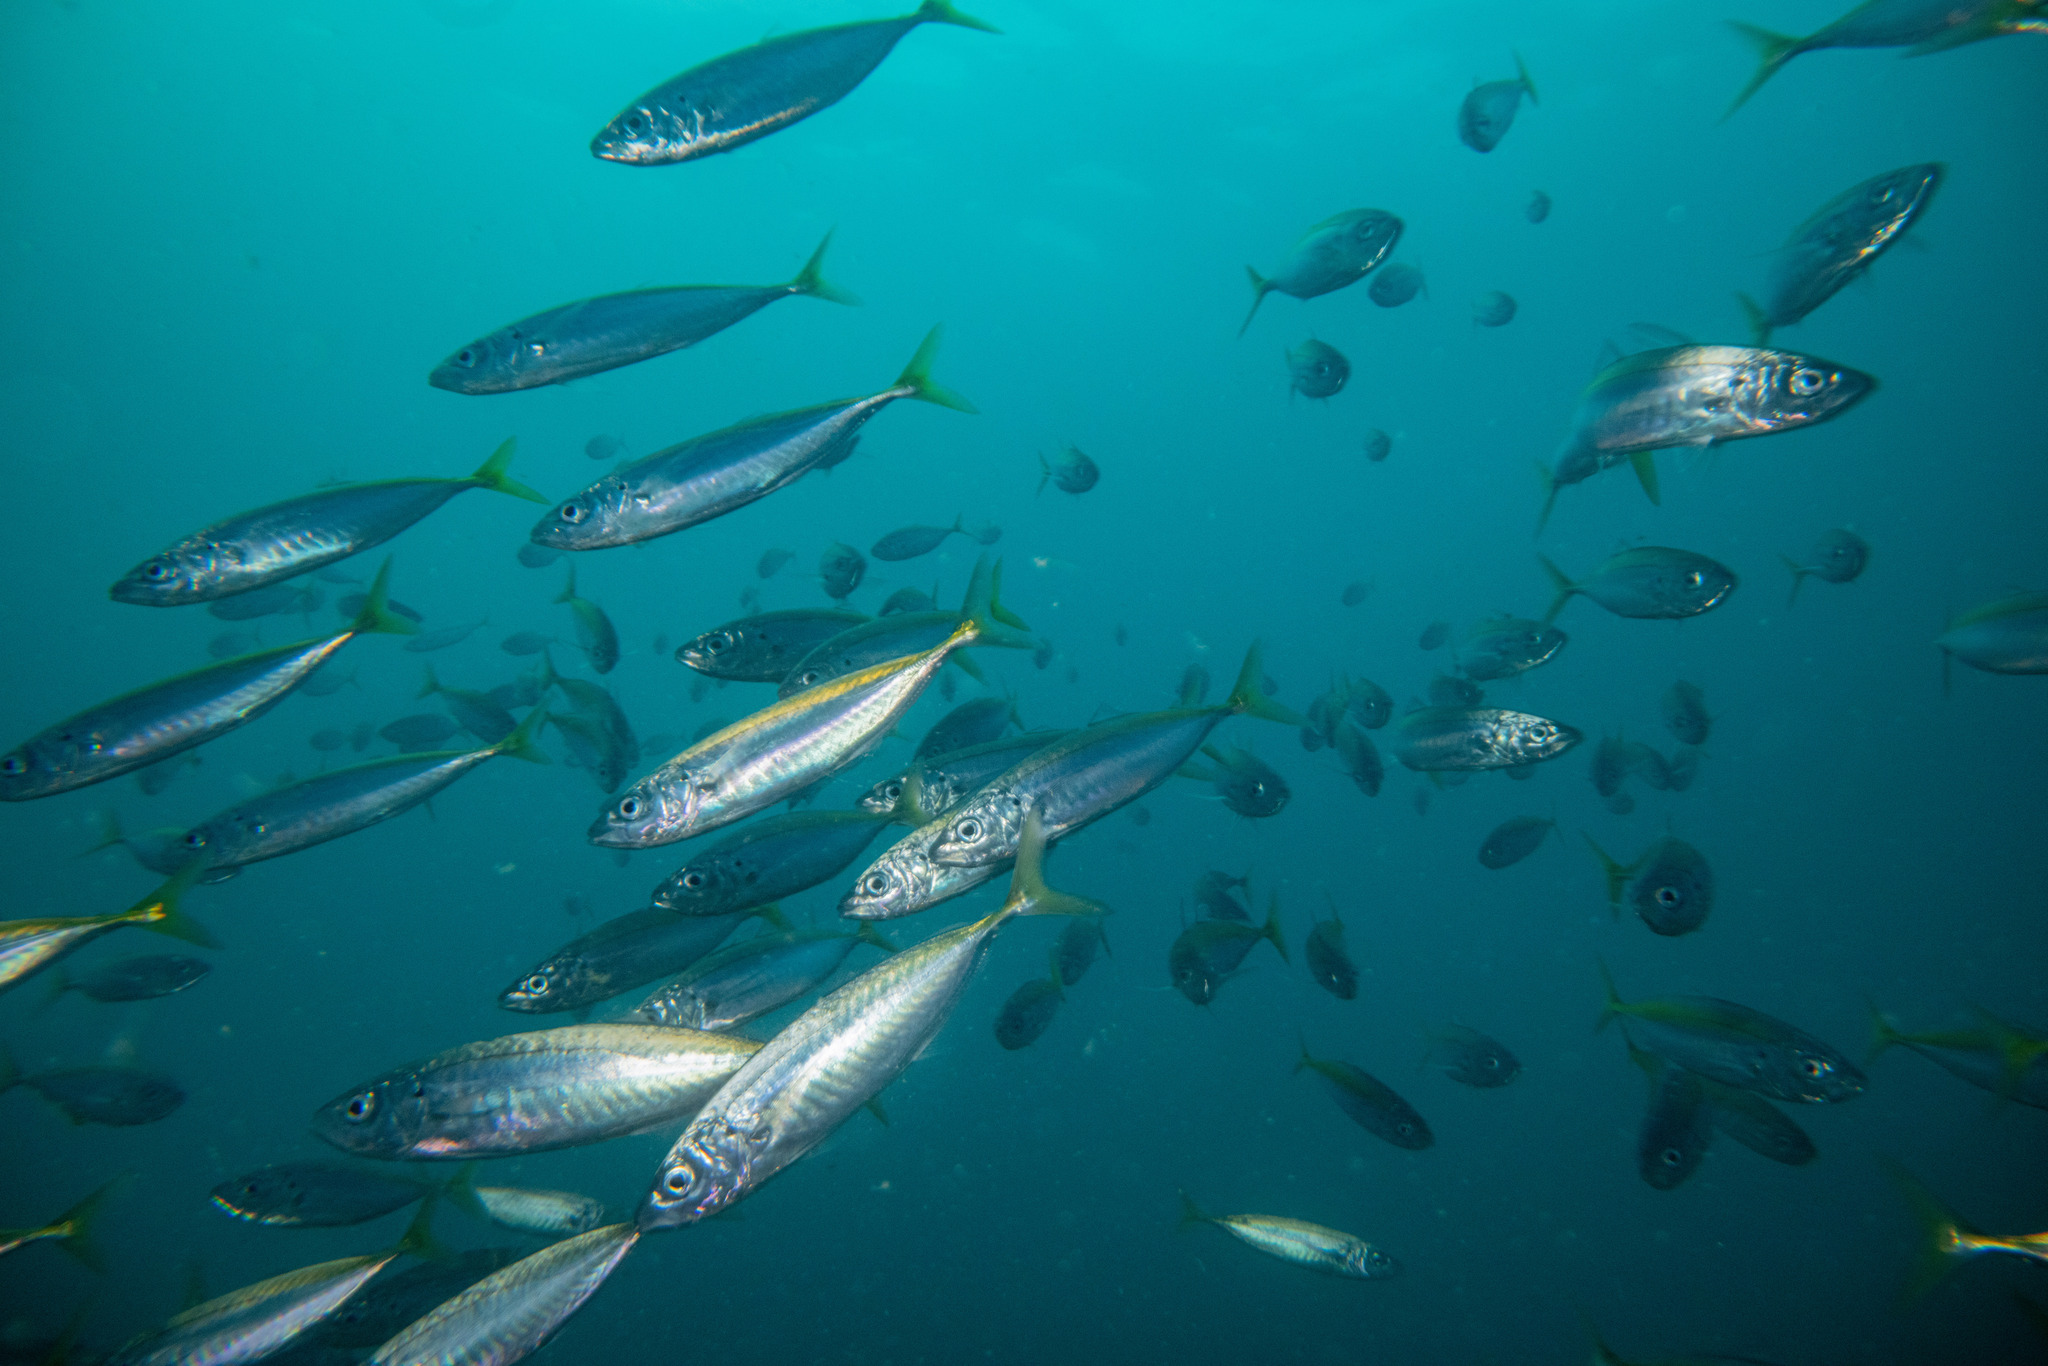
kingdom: Animalia
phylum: Chordata
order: Perciformes
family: Carangidae
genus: Decapterus
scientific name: Decapterus koheru
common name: Koheru
